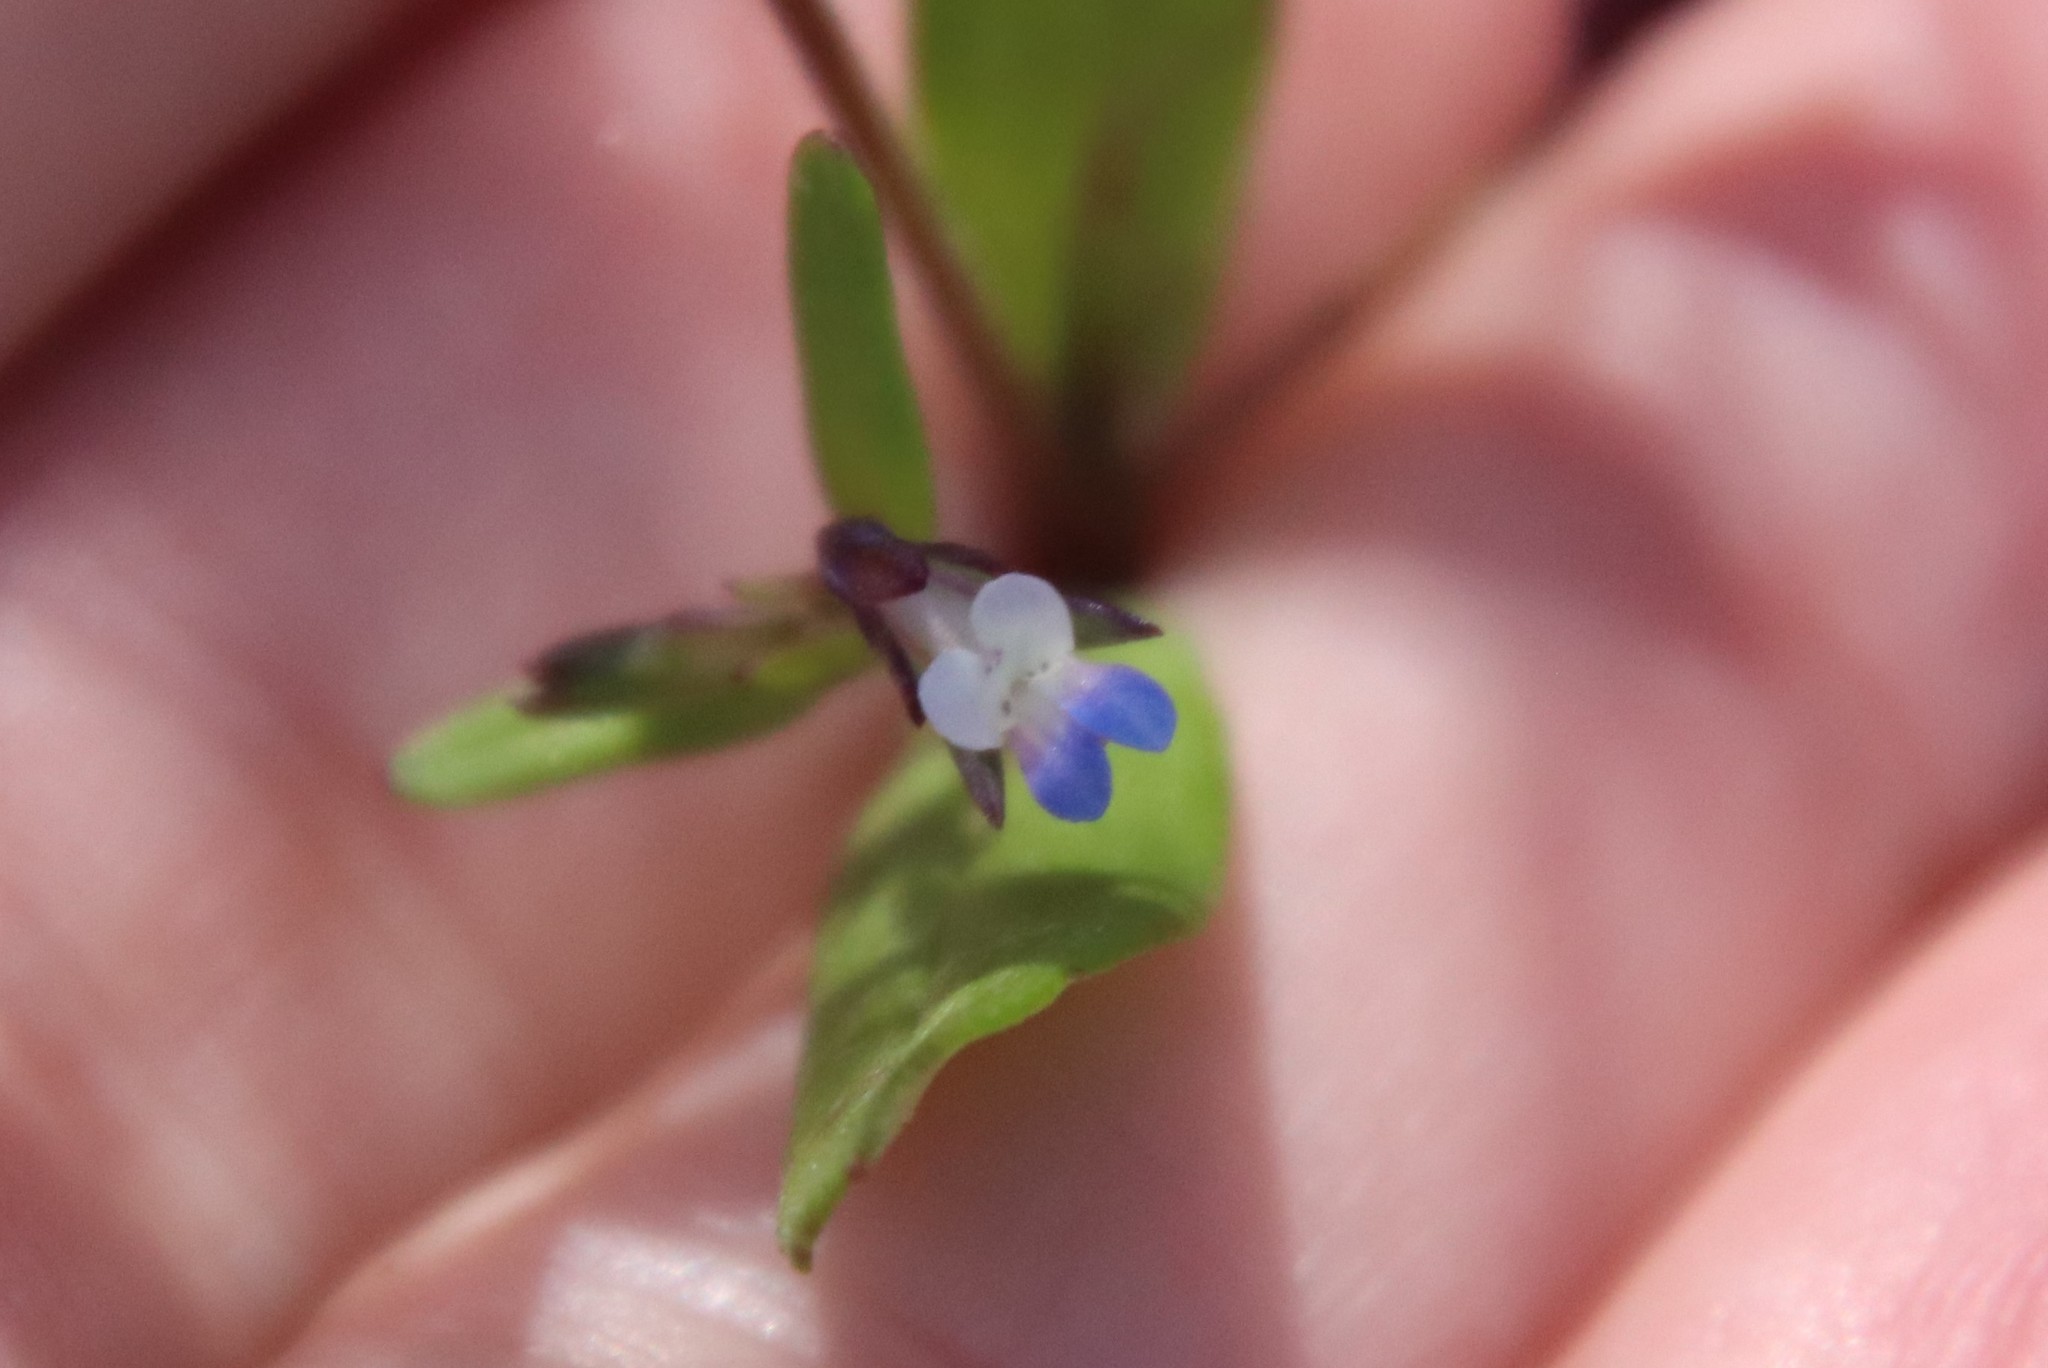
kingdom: Plantae
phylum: Tracheophyta
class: Magnoliopsida
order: Lamiales
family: Plantaginaceae
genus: Collinsia
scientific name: Collinsia parviflora
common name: Blue-lips
